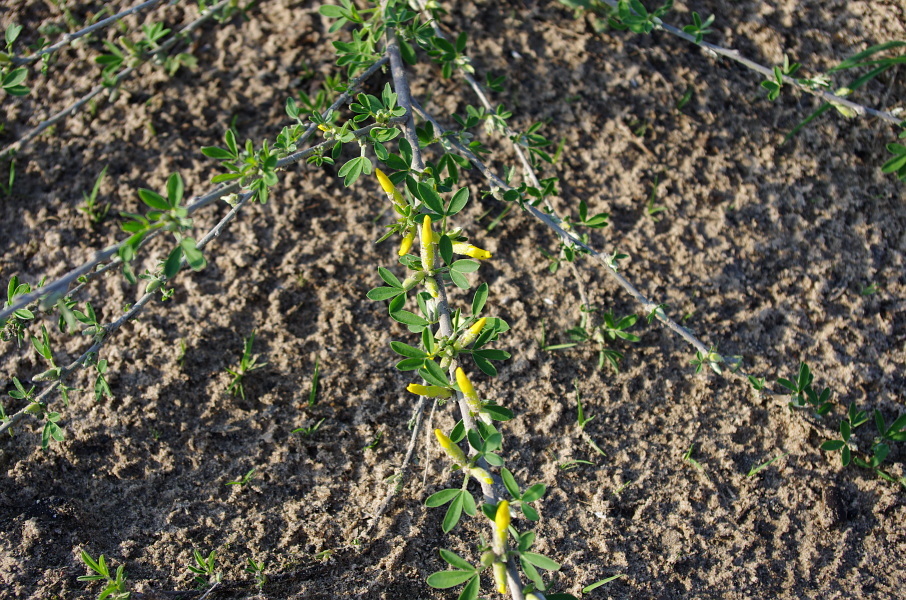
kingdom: Plantae
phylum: Tracheophyta
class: Magnoliopsida
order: Fabales
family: Fabaceae
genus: Chamaecytisus
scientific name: Chamaecytisus ruthenicus
